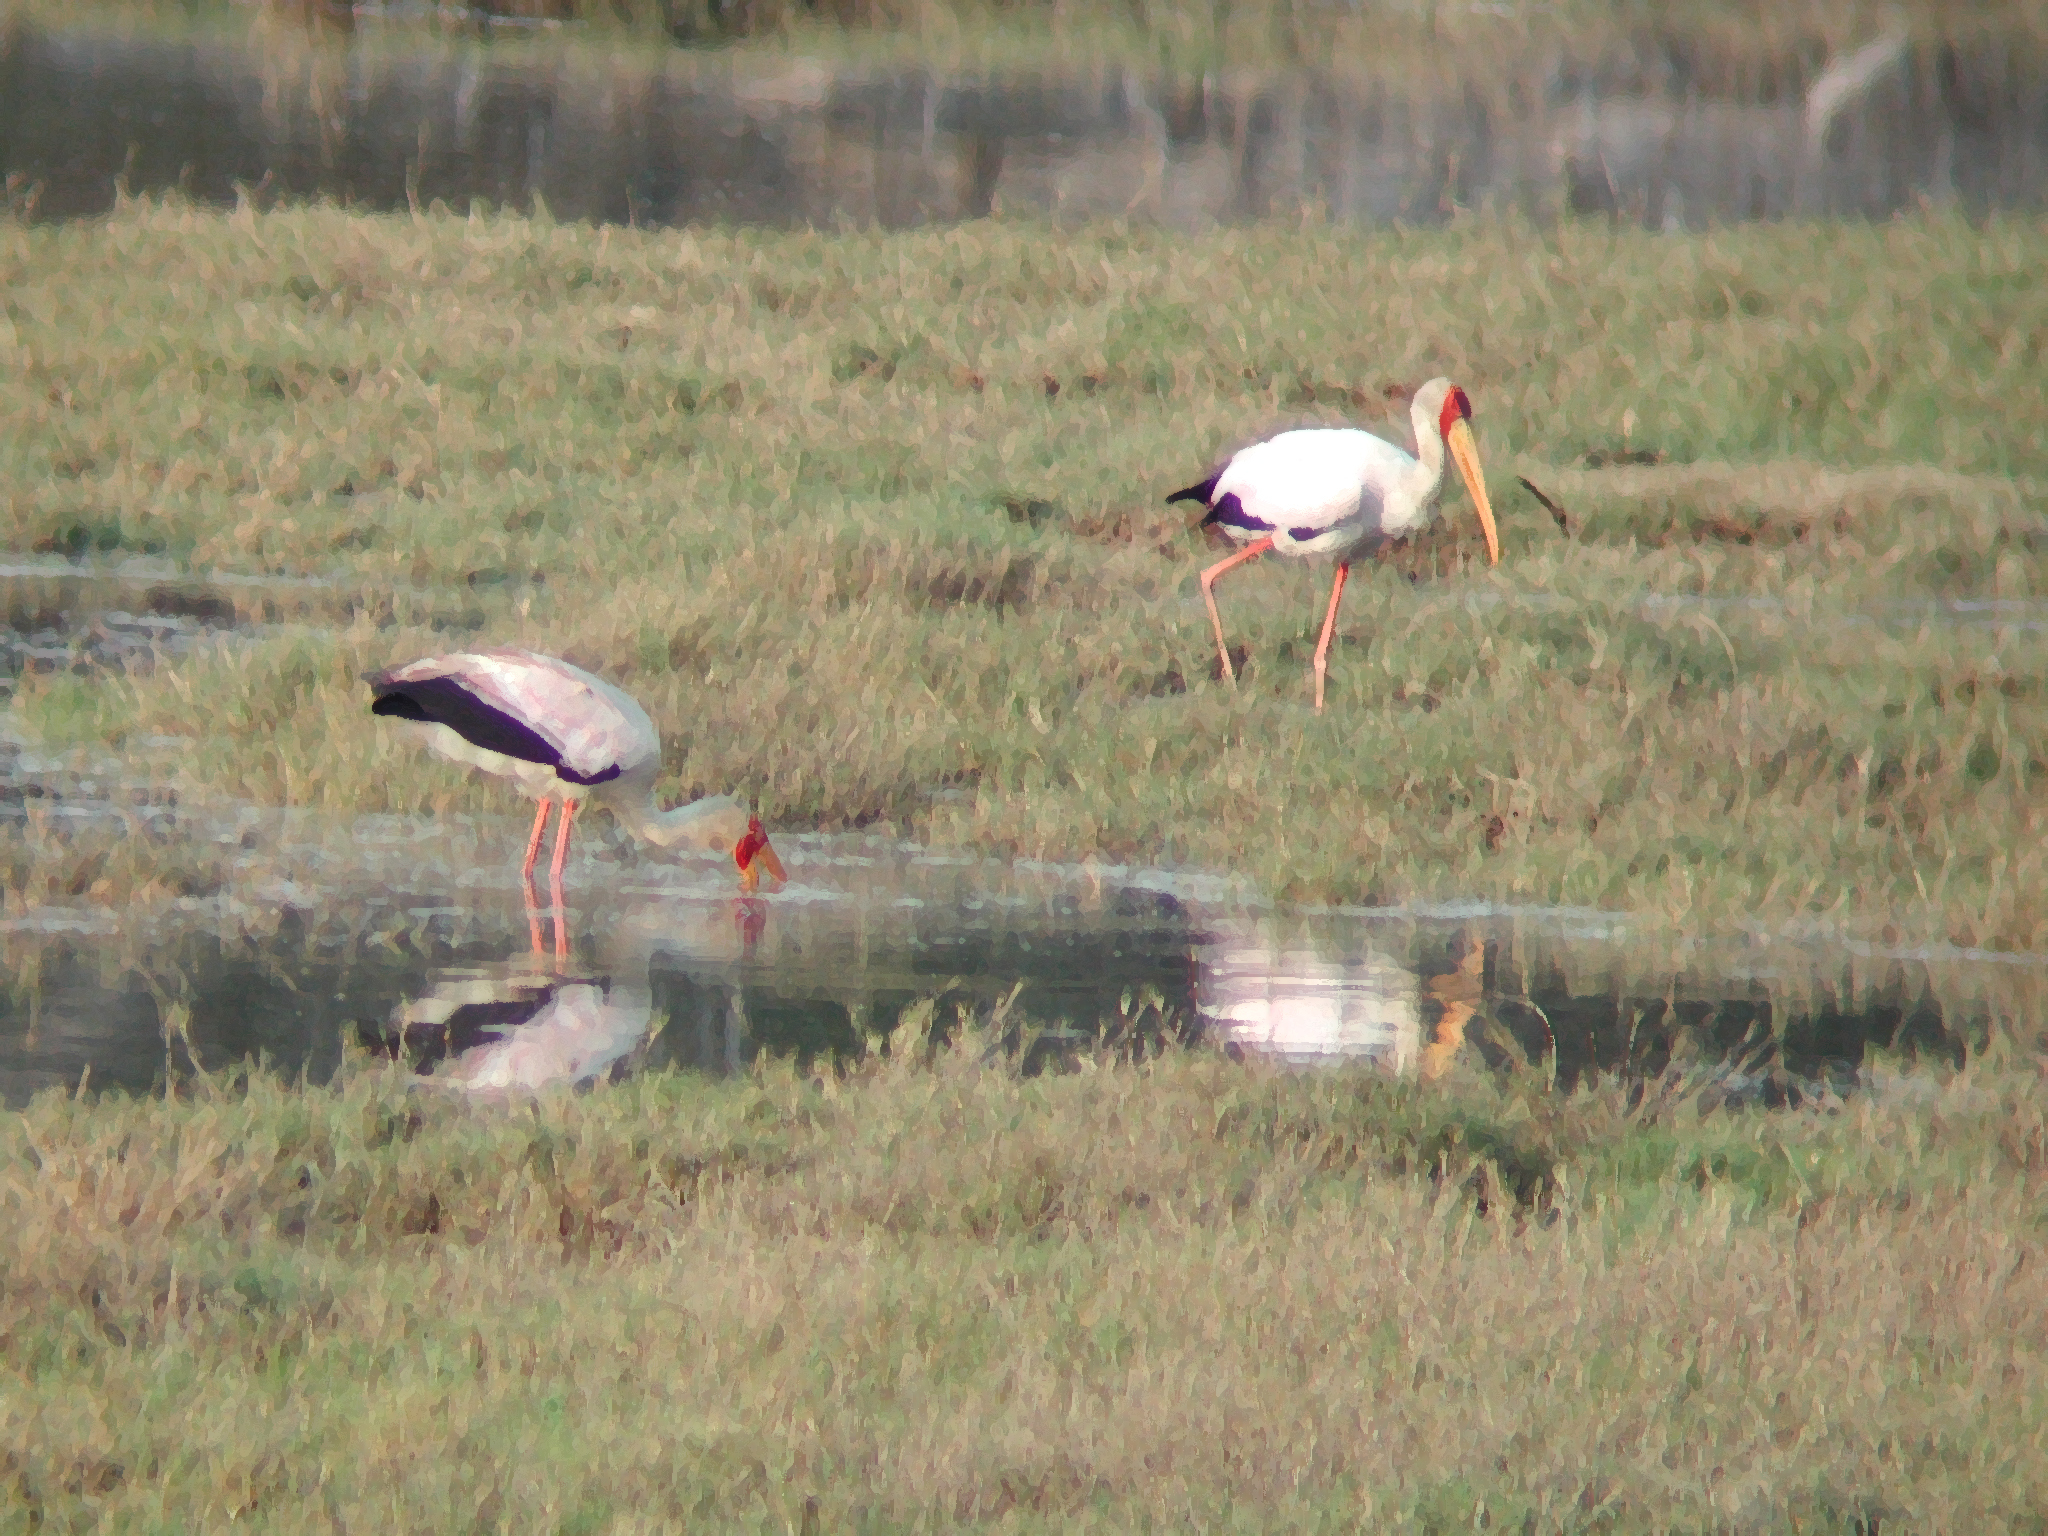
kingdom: Animalia
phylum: Chordata
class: Aves
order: Ciconiiformes
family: Ciconiidae
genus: Mycteria
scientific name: Mycteria ibis
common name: Yellow-billed stork
